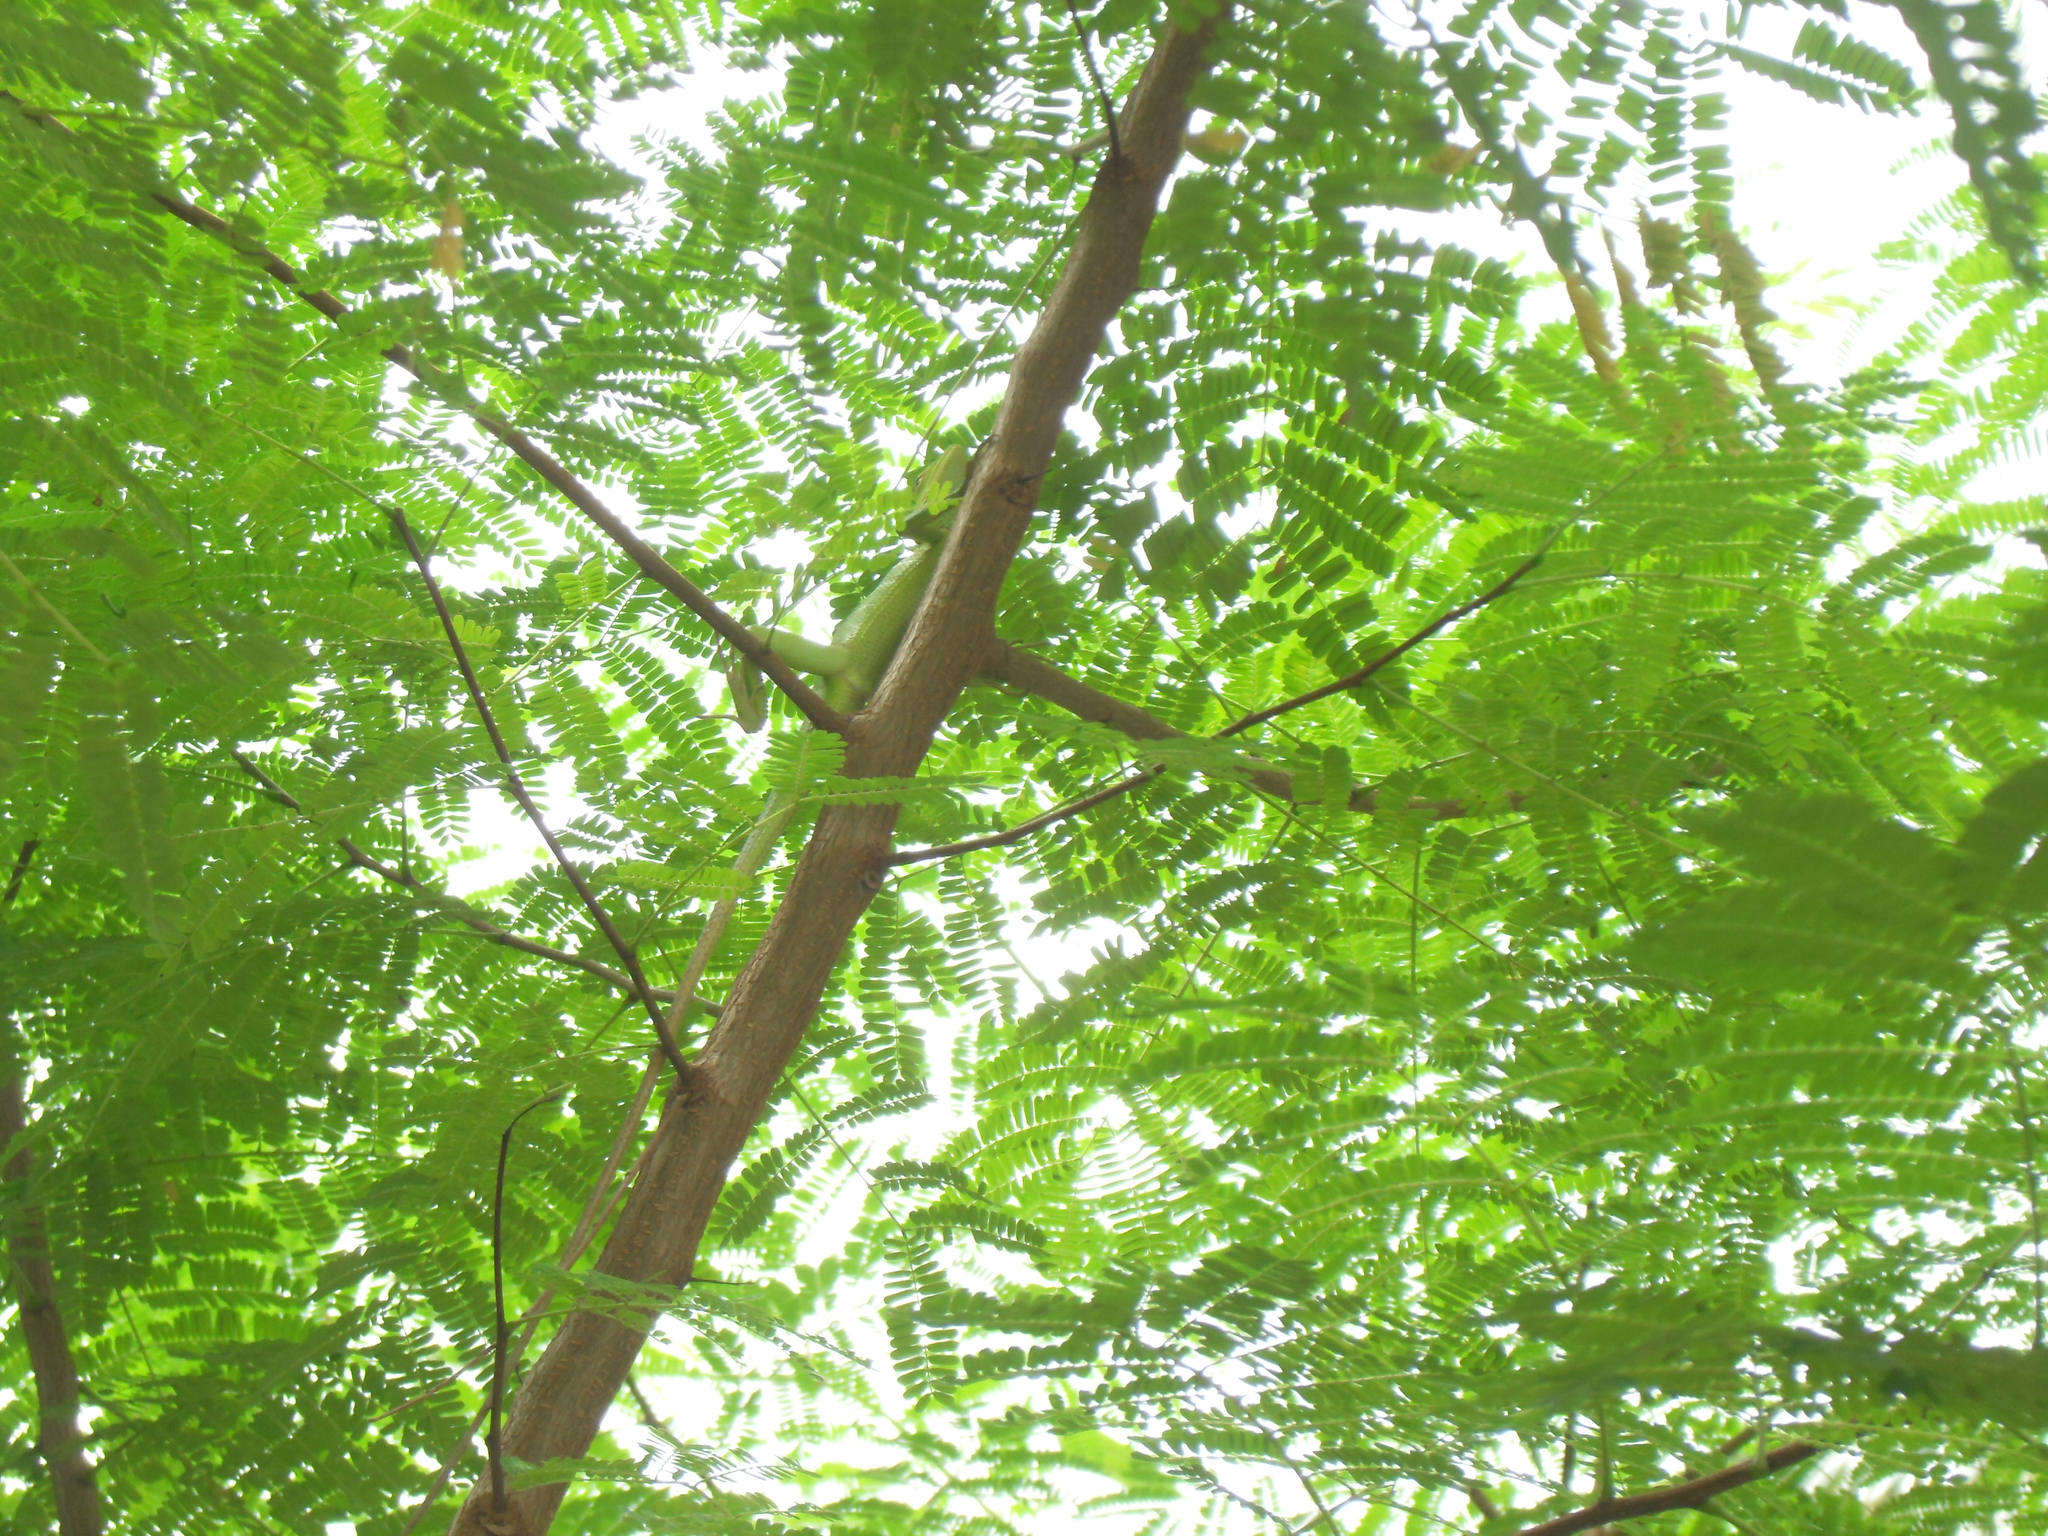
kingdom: Animalia
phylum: Chordata
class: Squamata
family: Agamidae
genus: Calotes
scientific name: Calotes calotes
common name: Common green forest lizard
